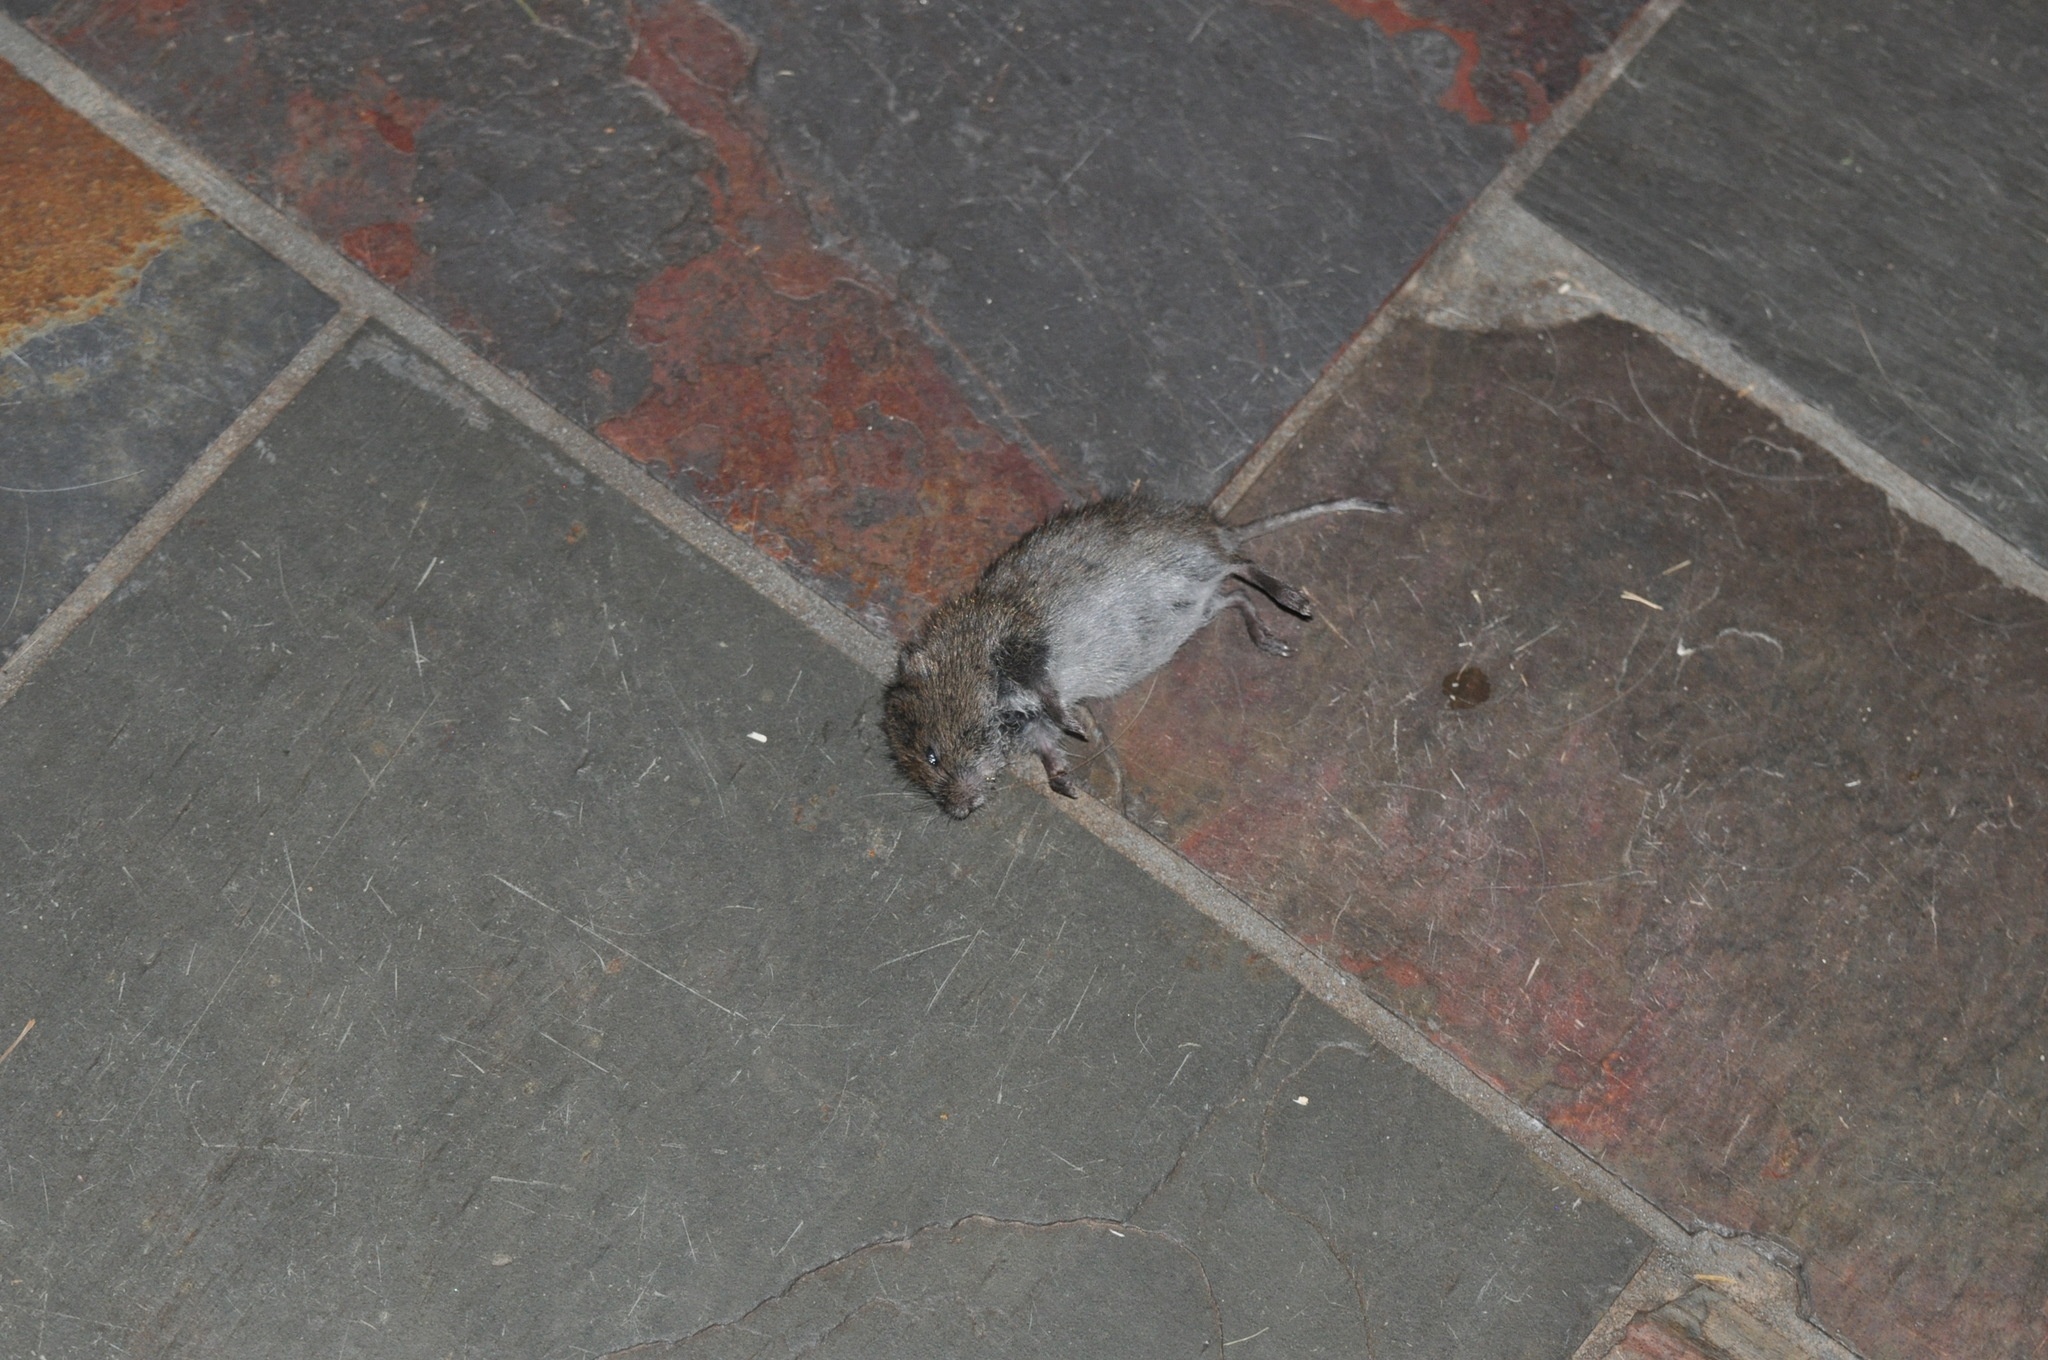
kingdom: Animalia
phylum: Chordata
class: Mammalia
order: Rodentia
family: Cricetidae
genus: Microtus
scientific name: Microtus pennsylvanicus
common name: Meadow vole
